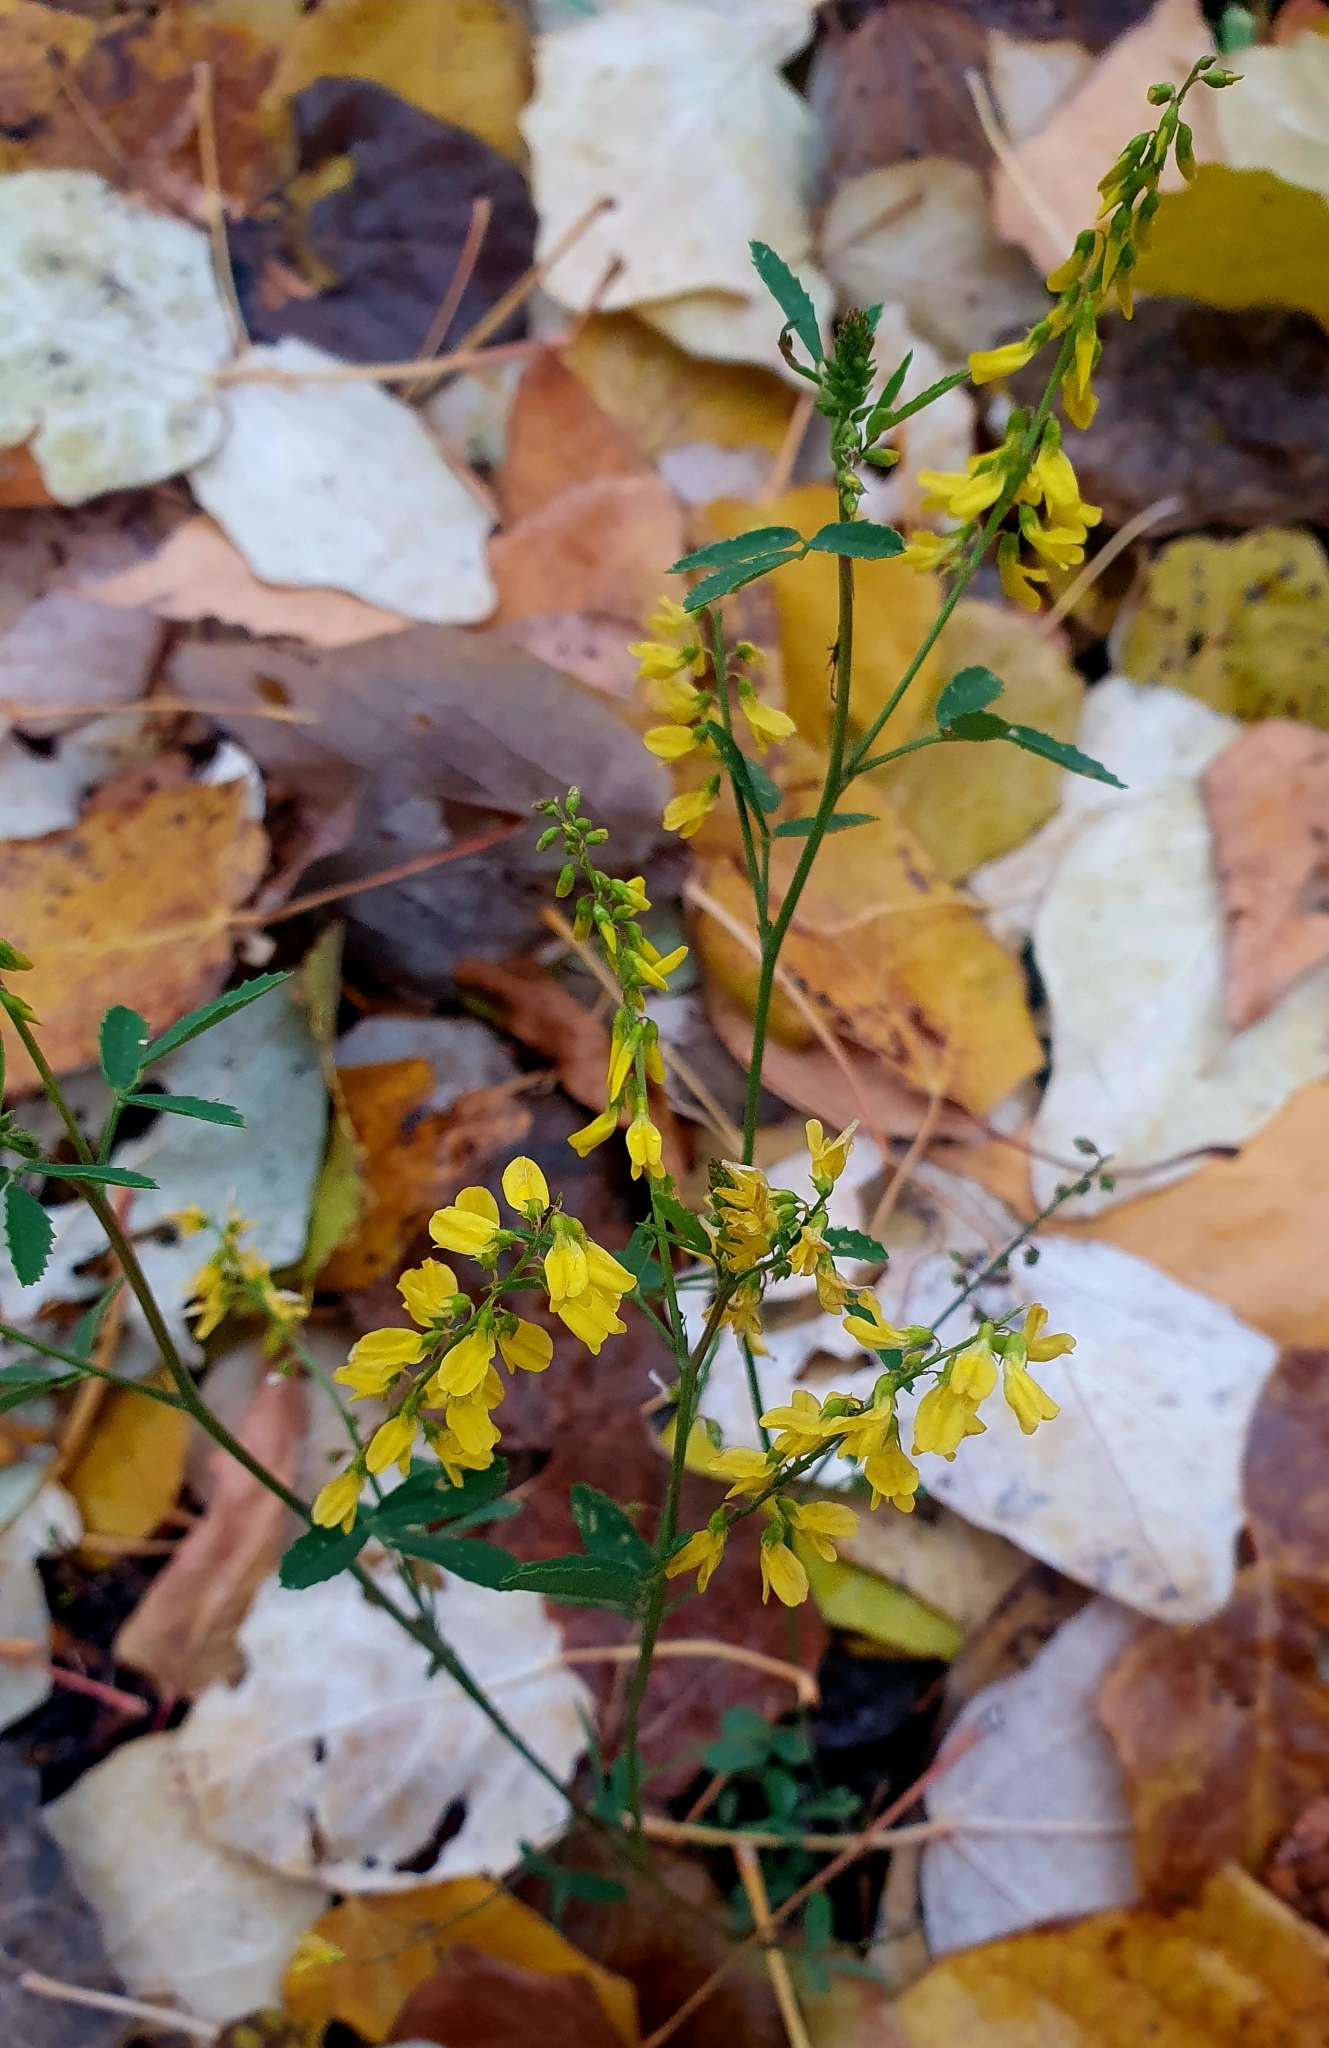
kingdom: Plantae
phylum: Tracheophyta
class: Magnoliopsida
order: Fabales
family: Fabaceae
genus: Melilotus
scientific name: Melilotus officinalis
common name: Sweetclover
